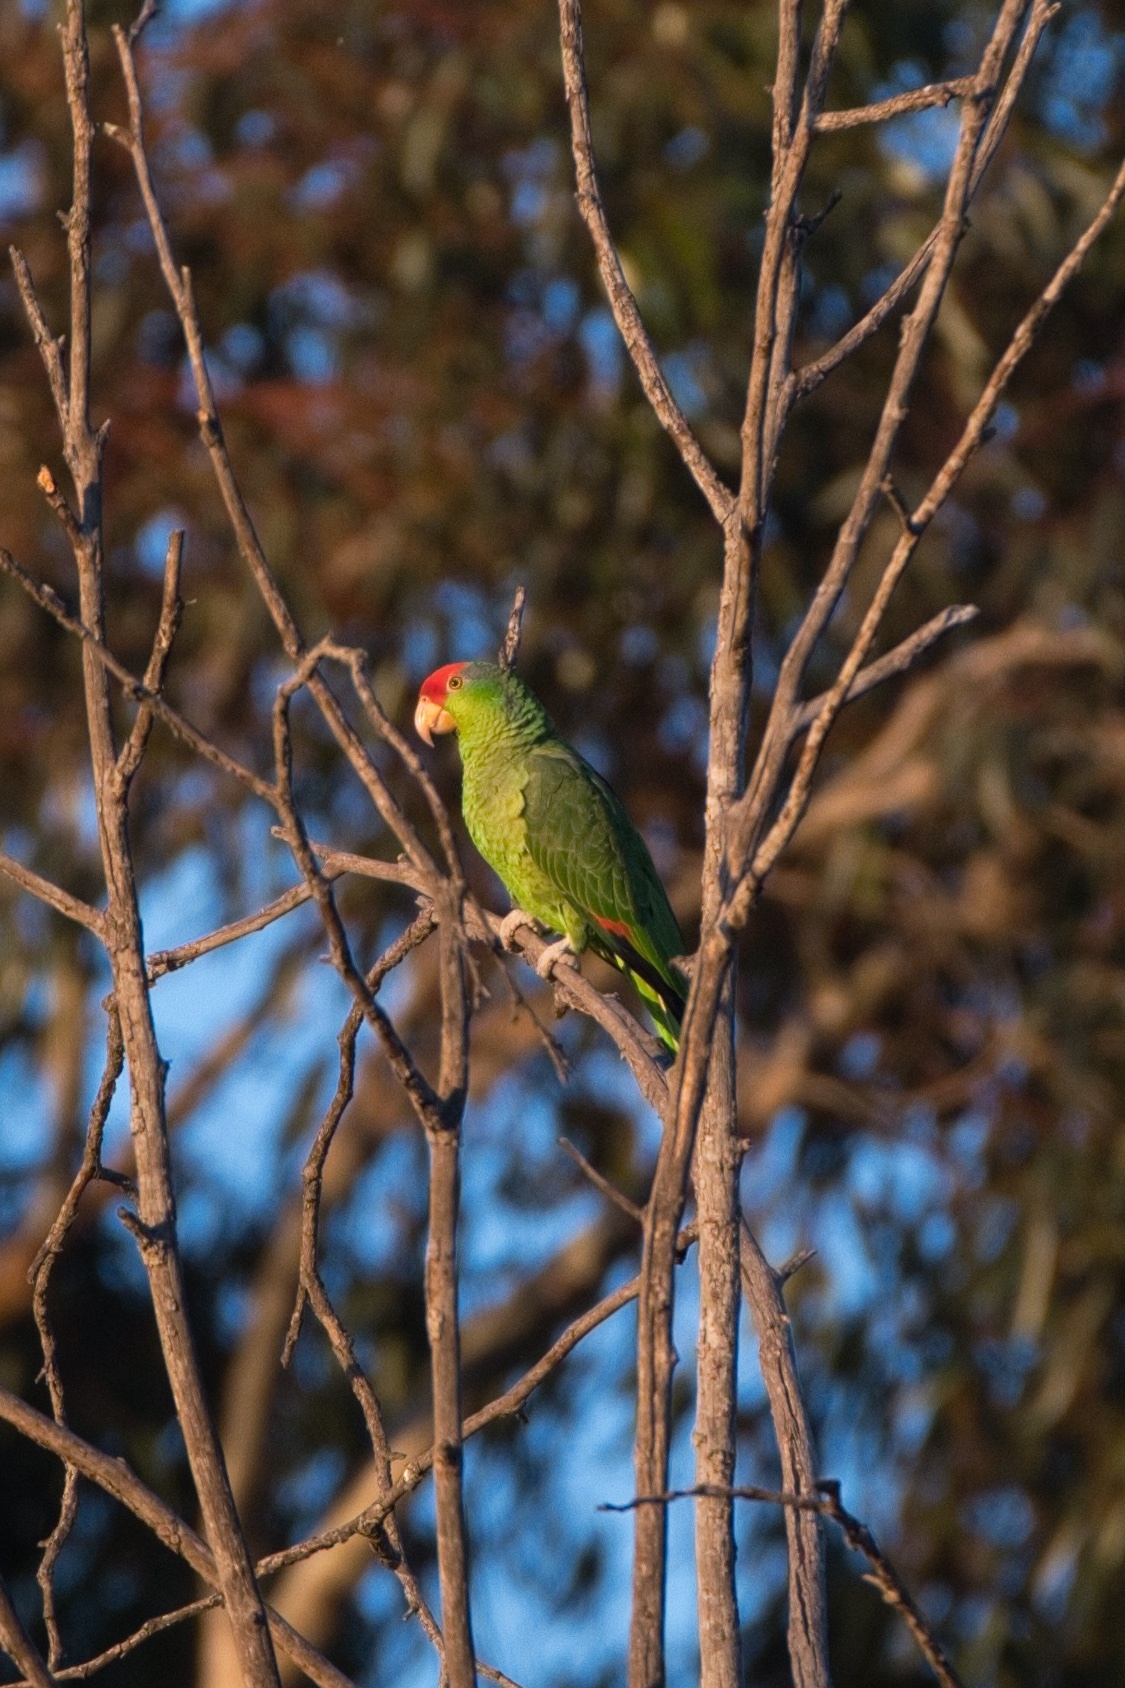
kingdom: Animalia
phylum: Chordata
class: Aves
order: Psittaciformes
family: Psittacidae
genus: Amazona
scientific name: Amazona viridigenalis
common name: Red-crowned amazon
